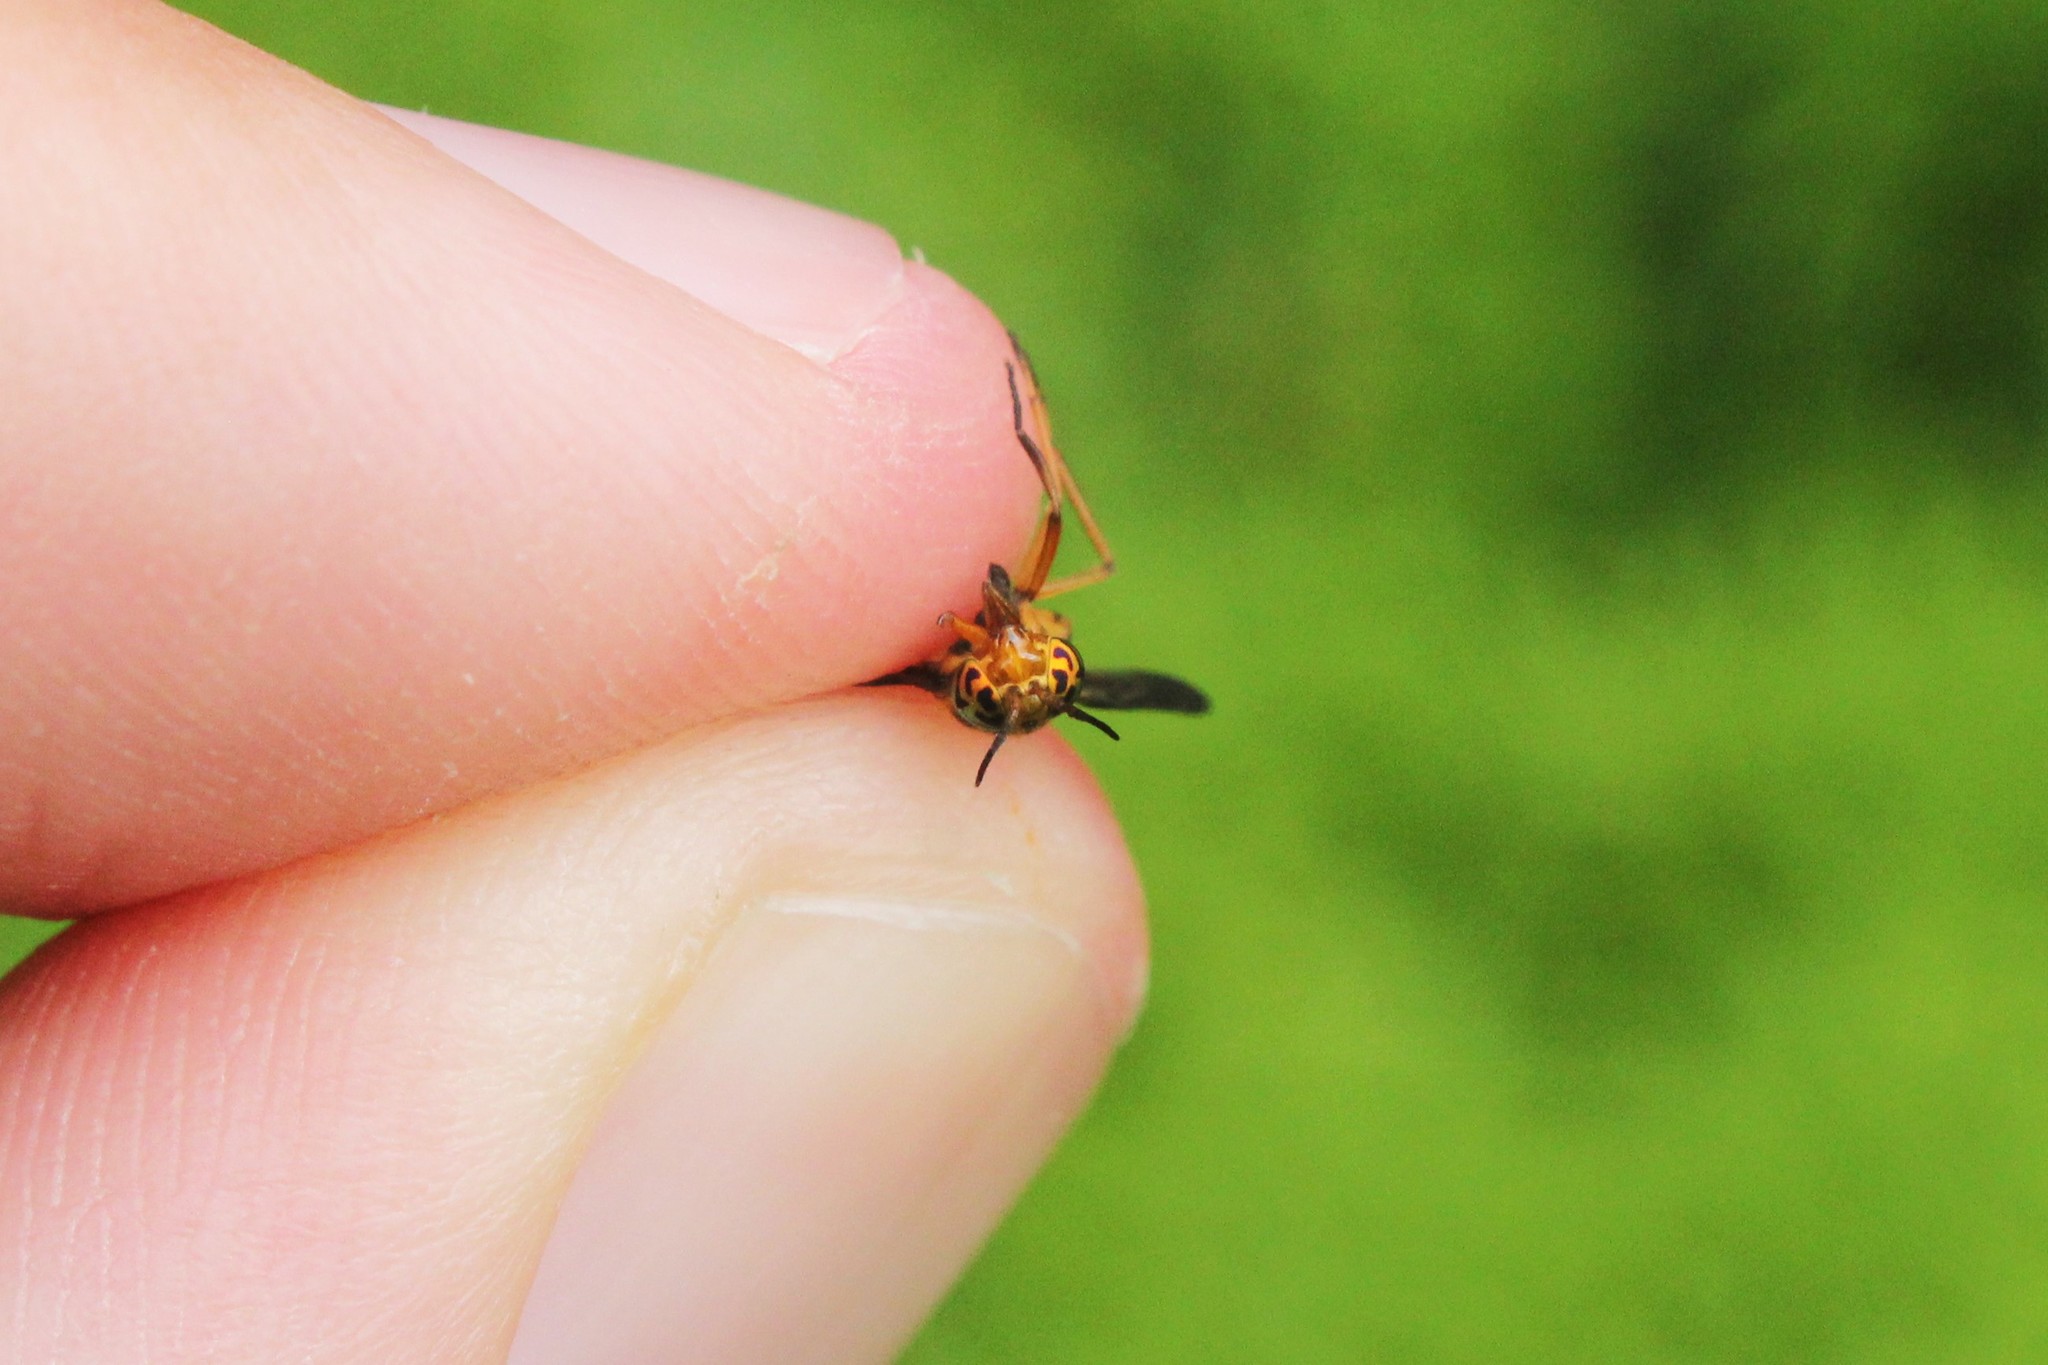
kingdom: Animalia
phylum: Arthropoda
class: Insecta
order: Diptera
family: Tabanidae
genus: Chrysops
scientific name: Chrysops vittatus
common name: Striped deer fly
